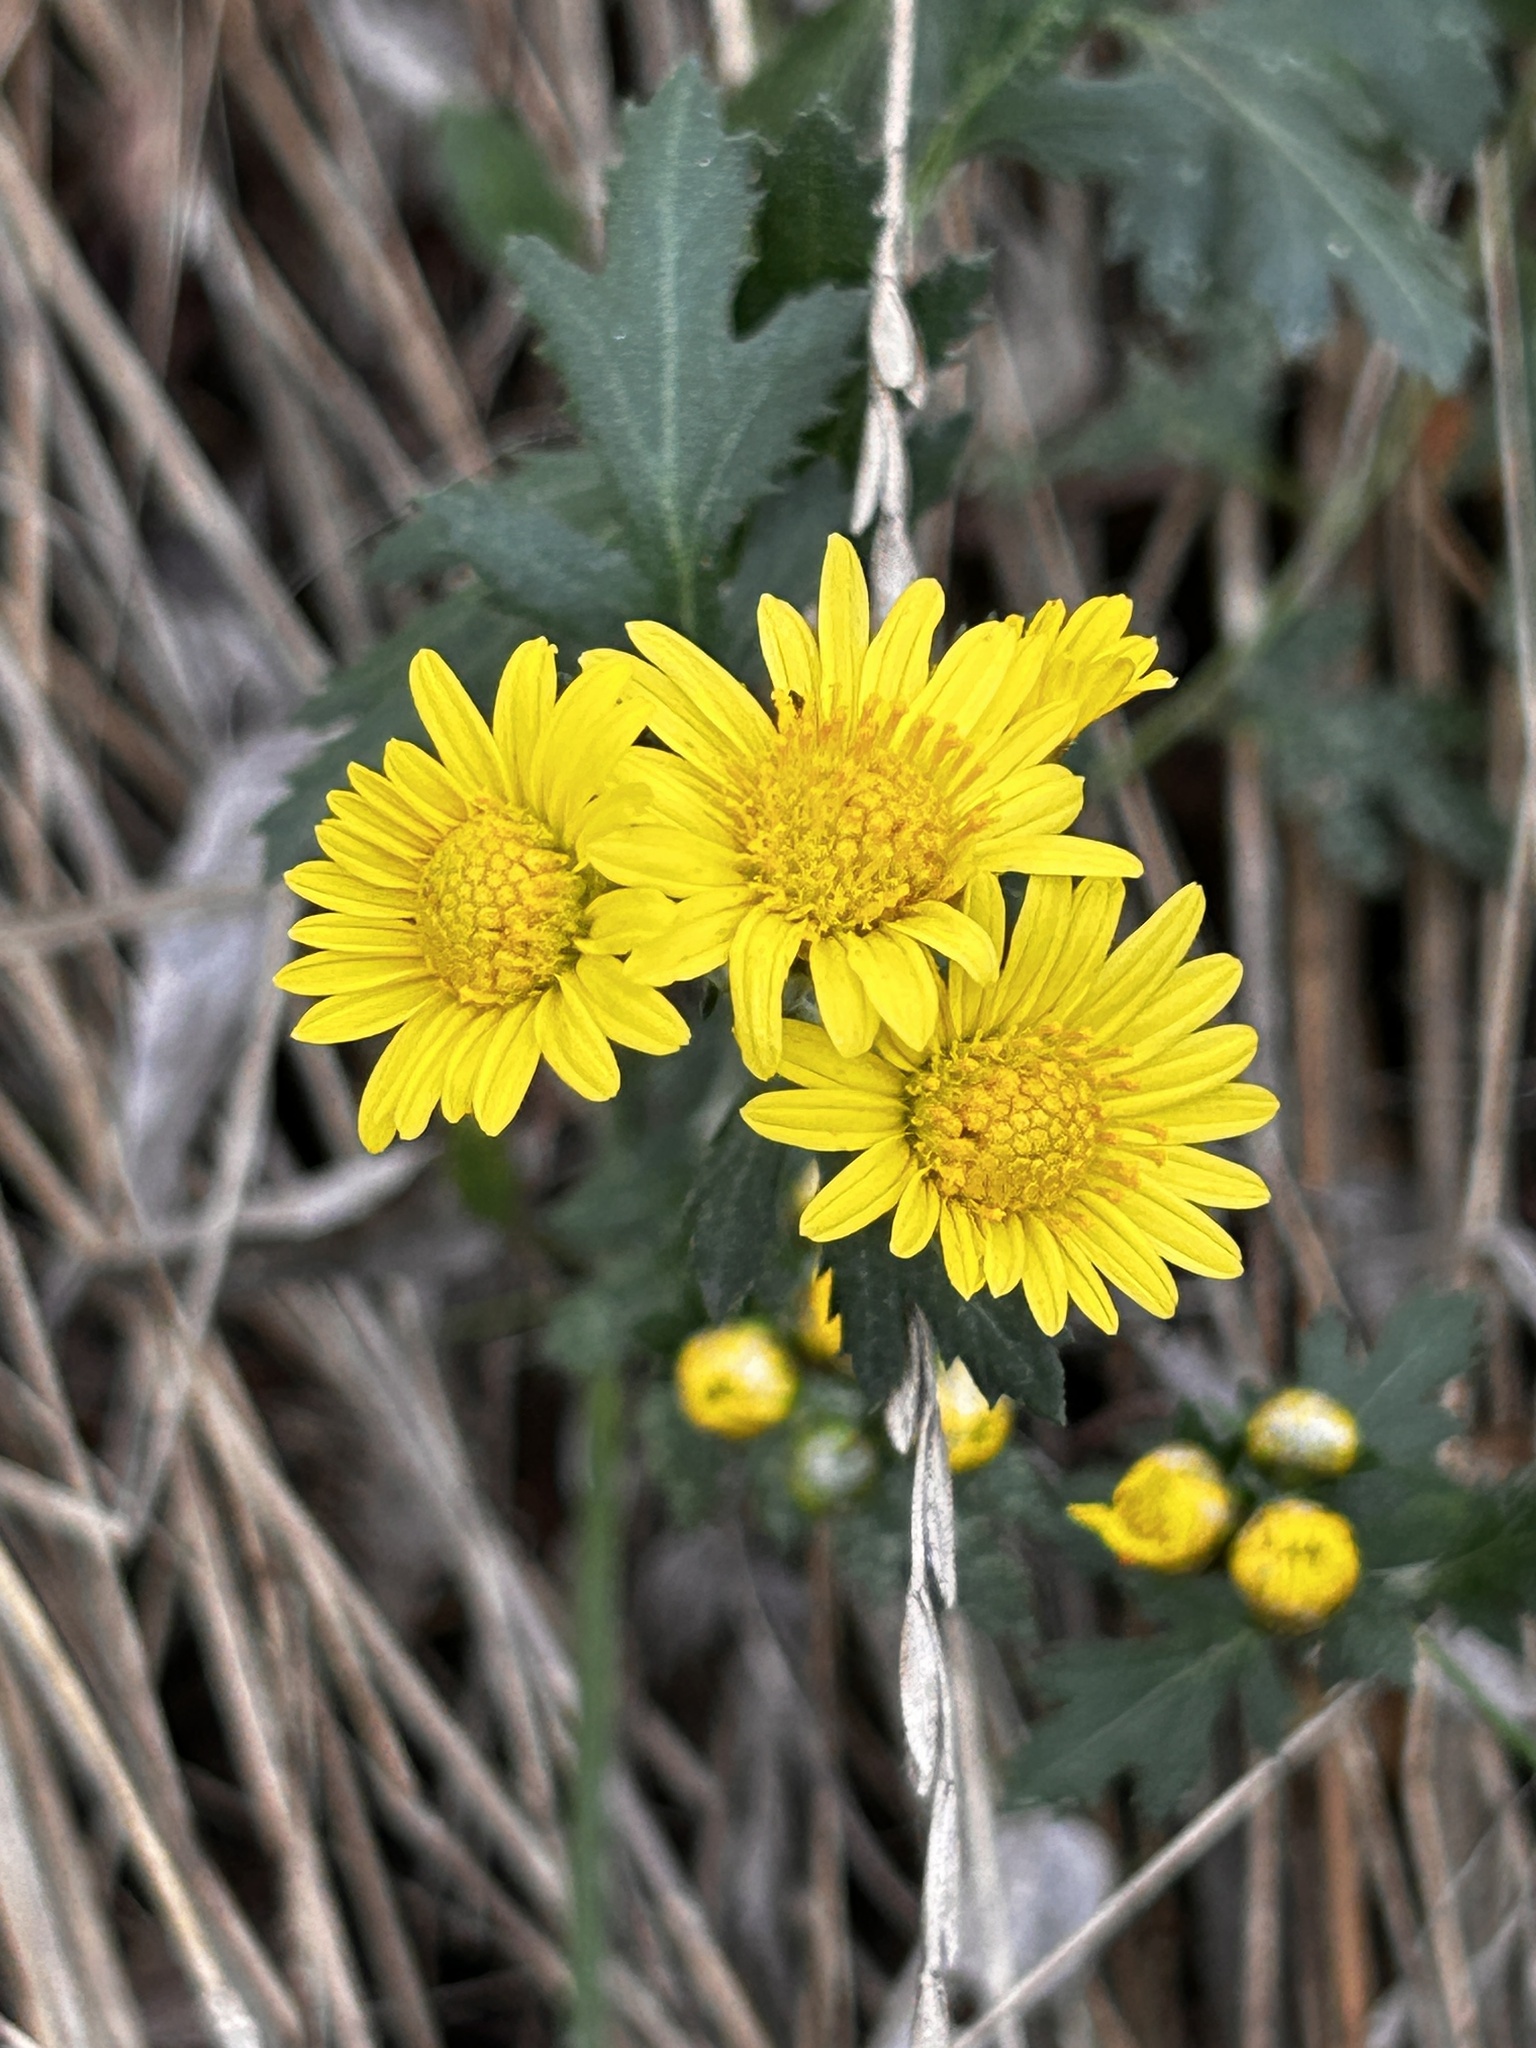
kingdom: Plantae
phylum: Tracheophyta
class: Magnoliopsida
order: Asterales
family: Asteraceae
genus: Chrysanthemum
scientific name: Chrysanthemum indicum
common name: Indian chrysanthemum
